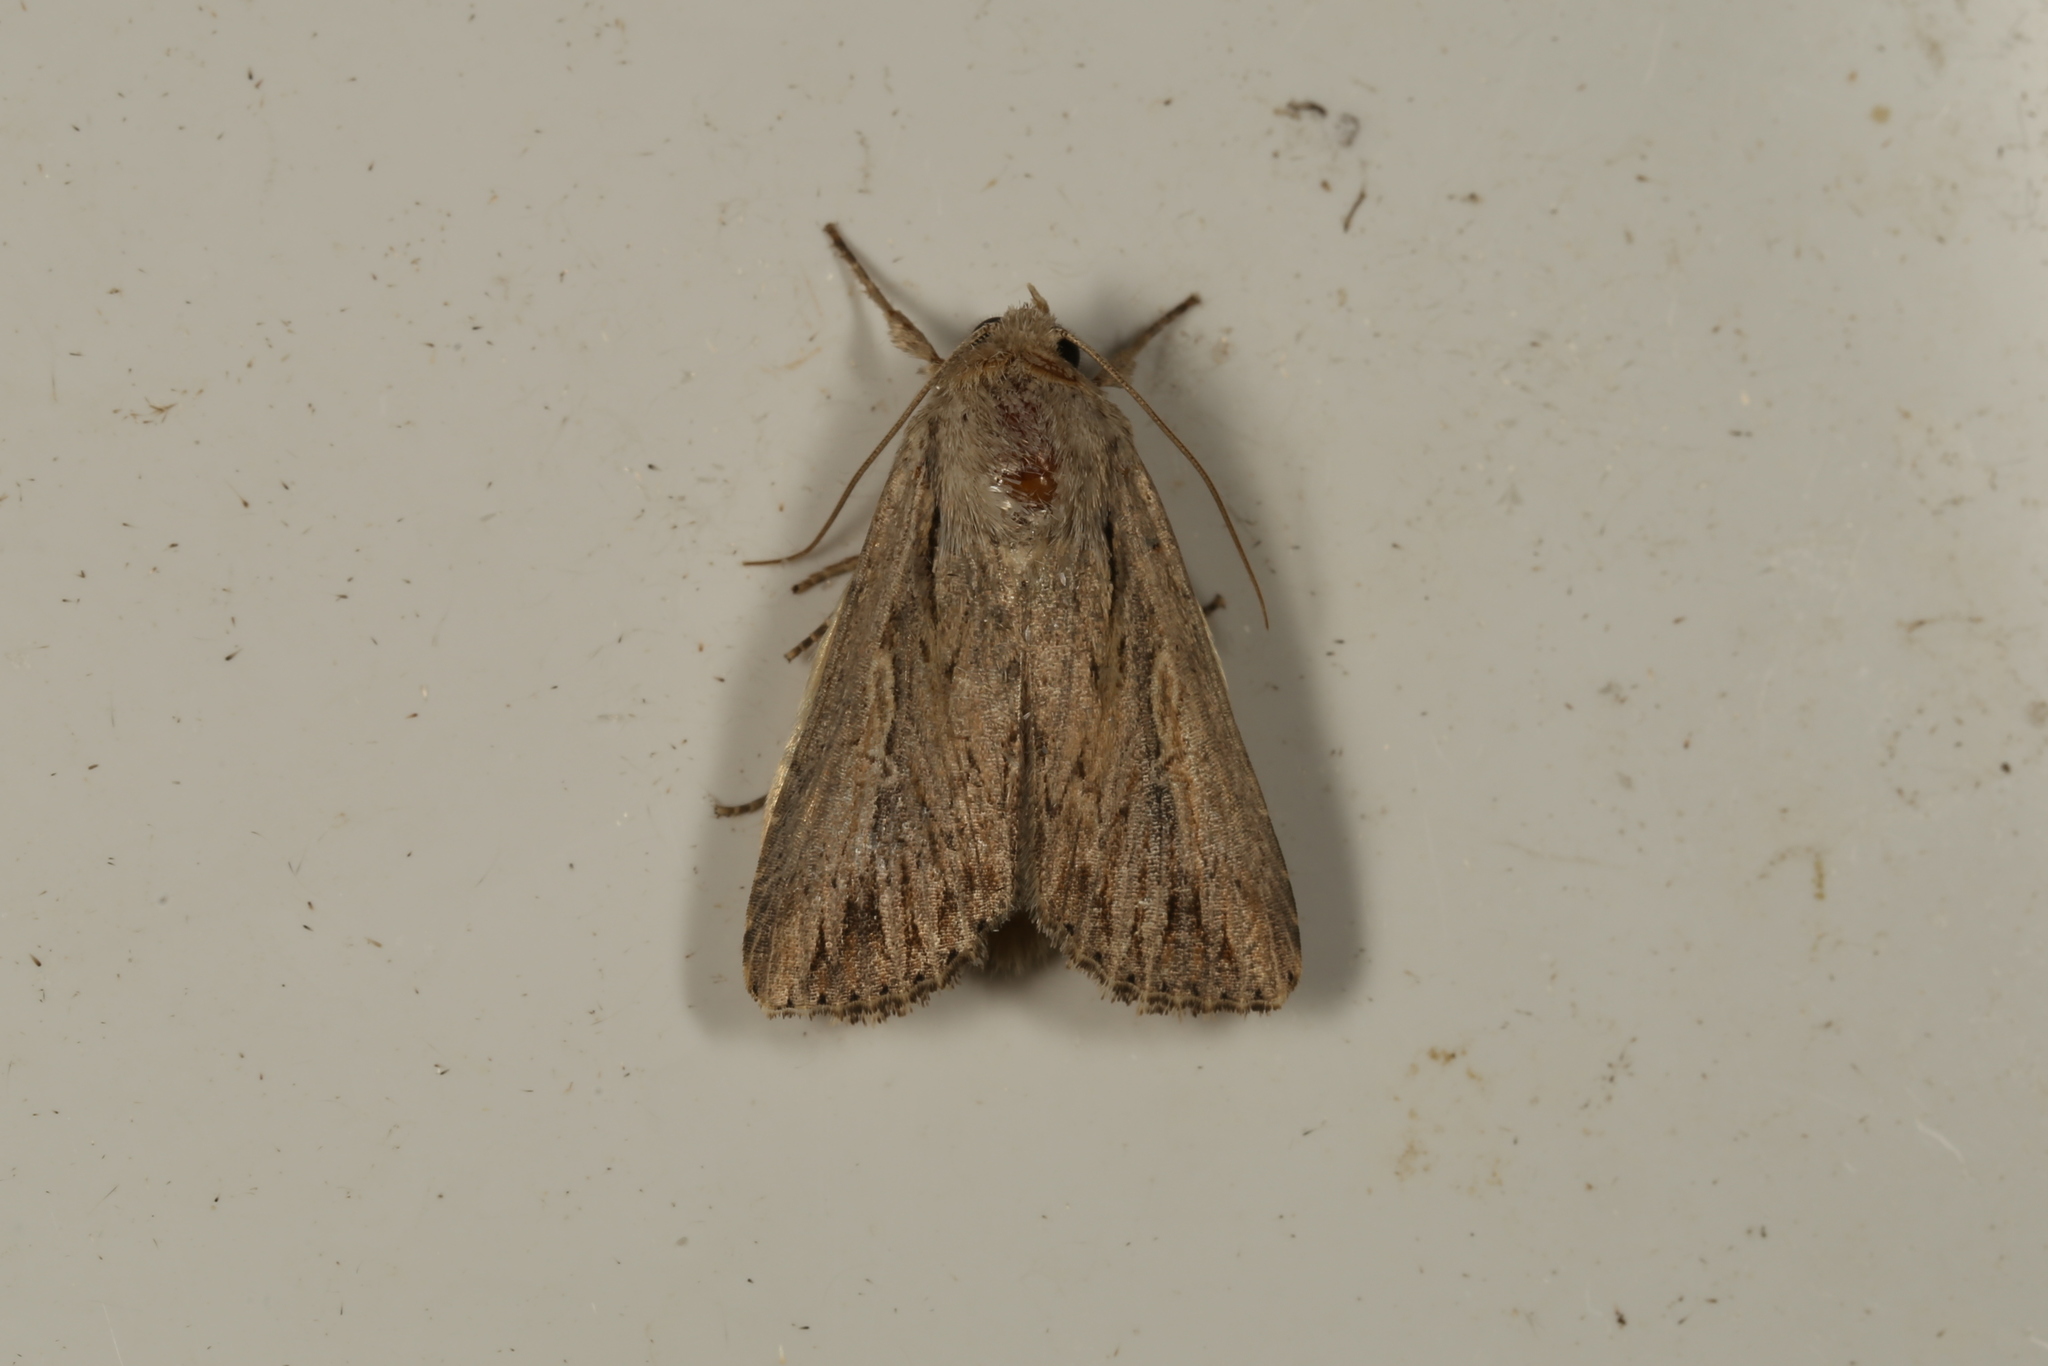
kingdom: Animalia
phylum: Arthropoda
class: Insecta
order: Lepidoptera
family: Noctuidae
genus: Persectania
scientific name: Persectania ewingii
